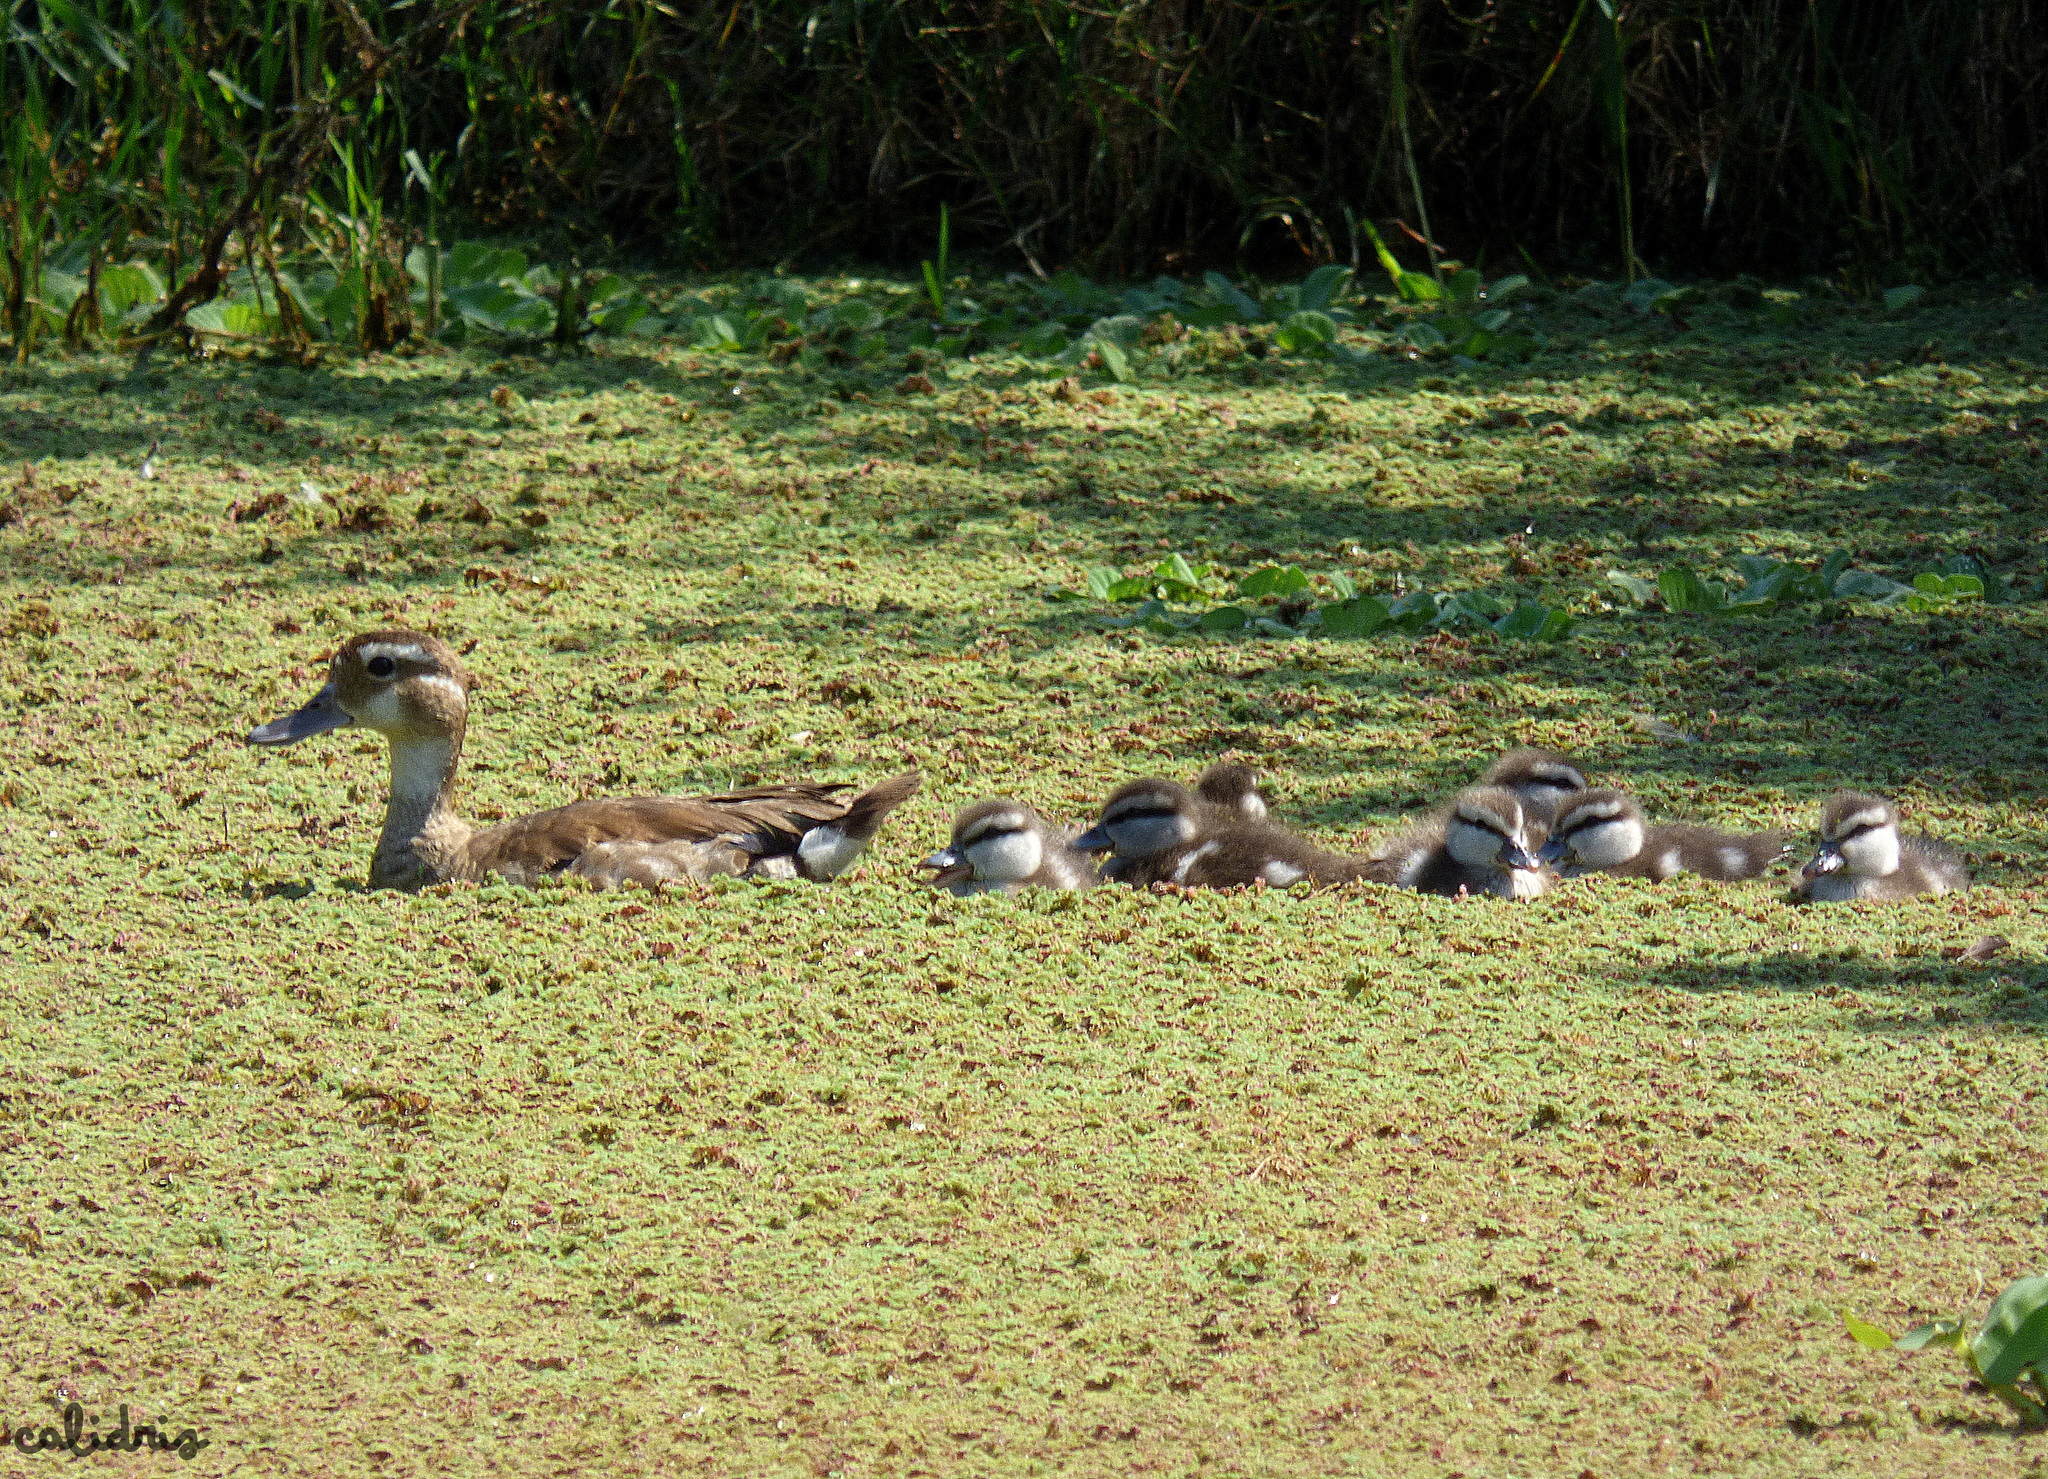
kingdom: Animalia
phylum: Chordata
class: Aves
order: Anseriformes
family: Anatidae
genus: Callonetta
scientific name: Callonetta leucophrys
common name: Ringed teal
